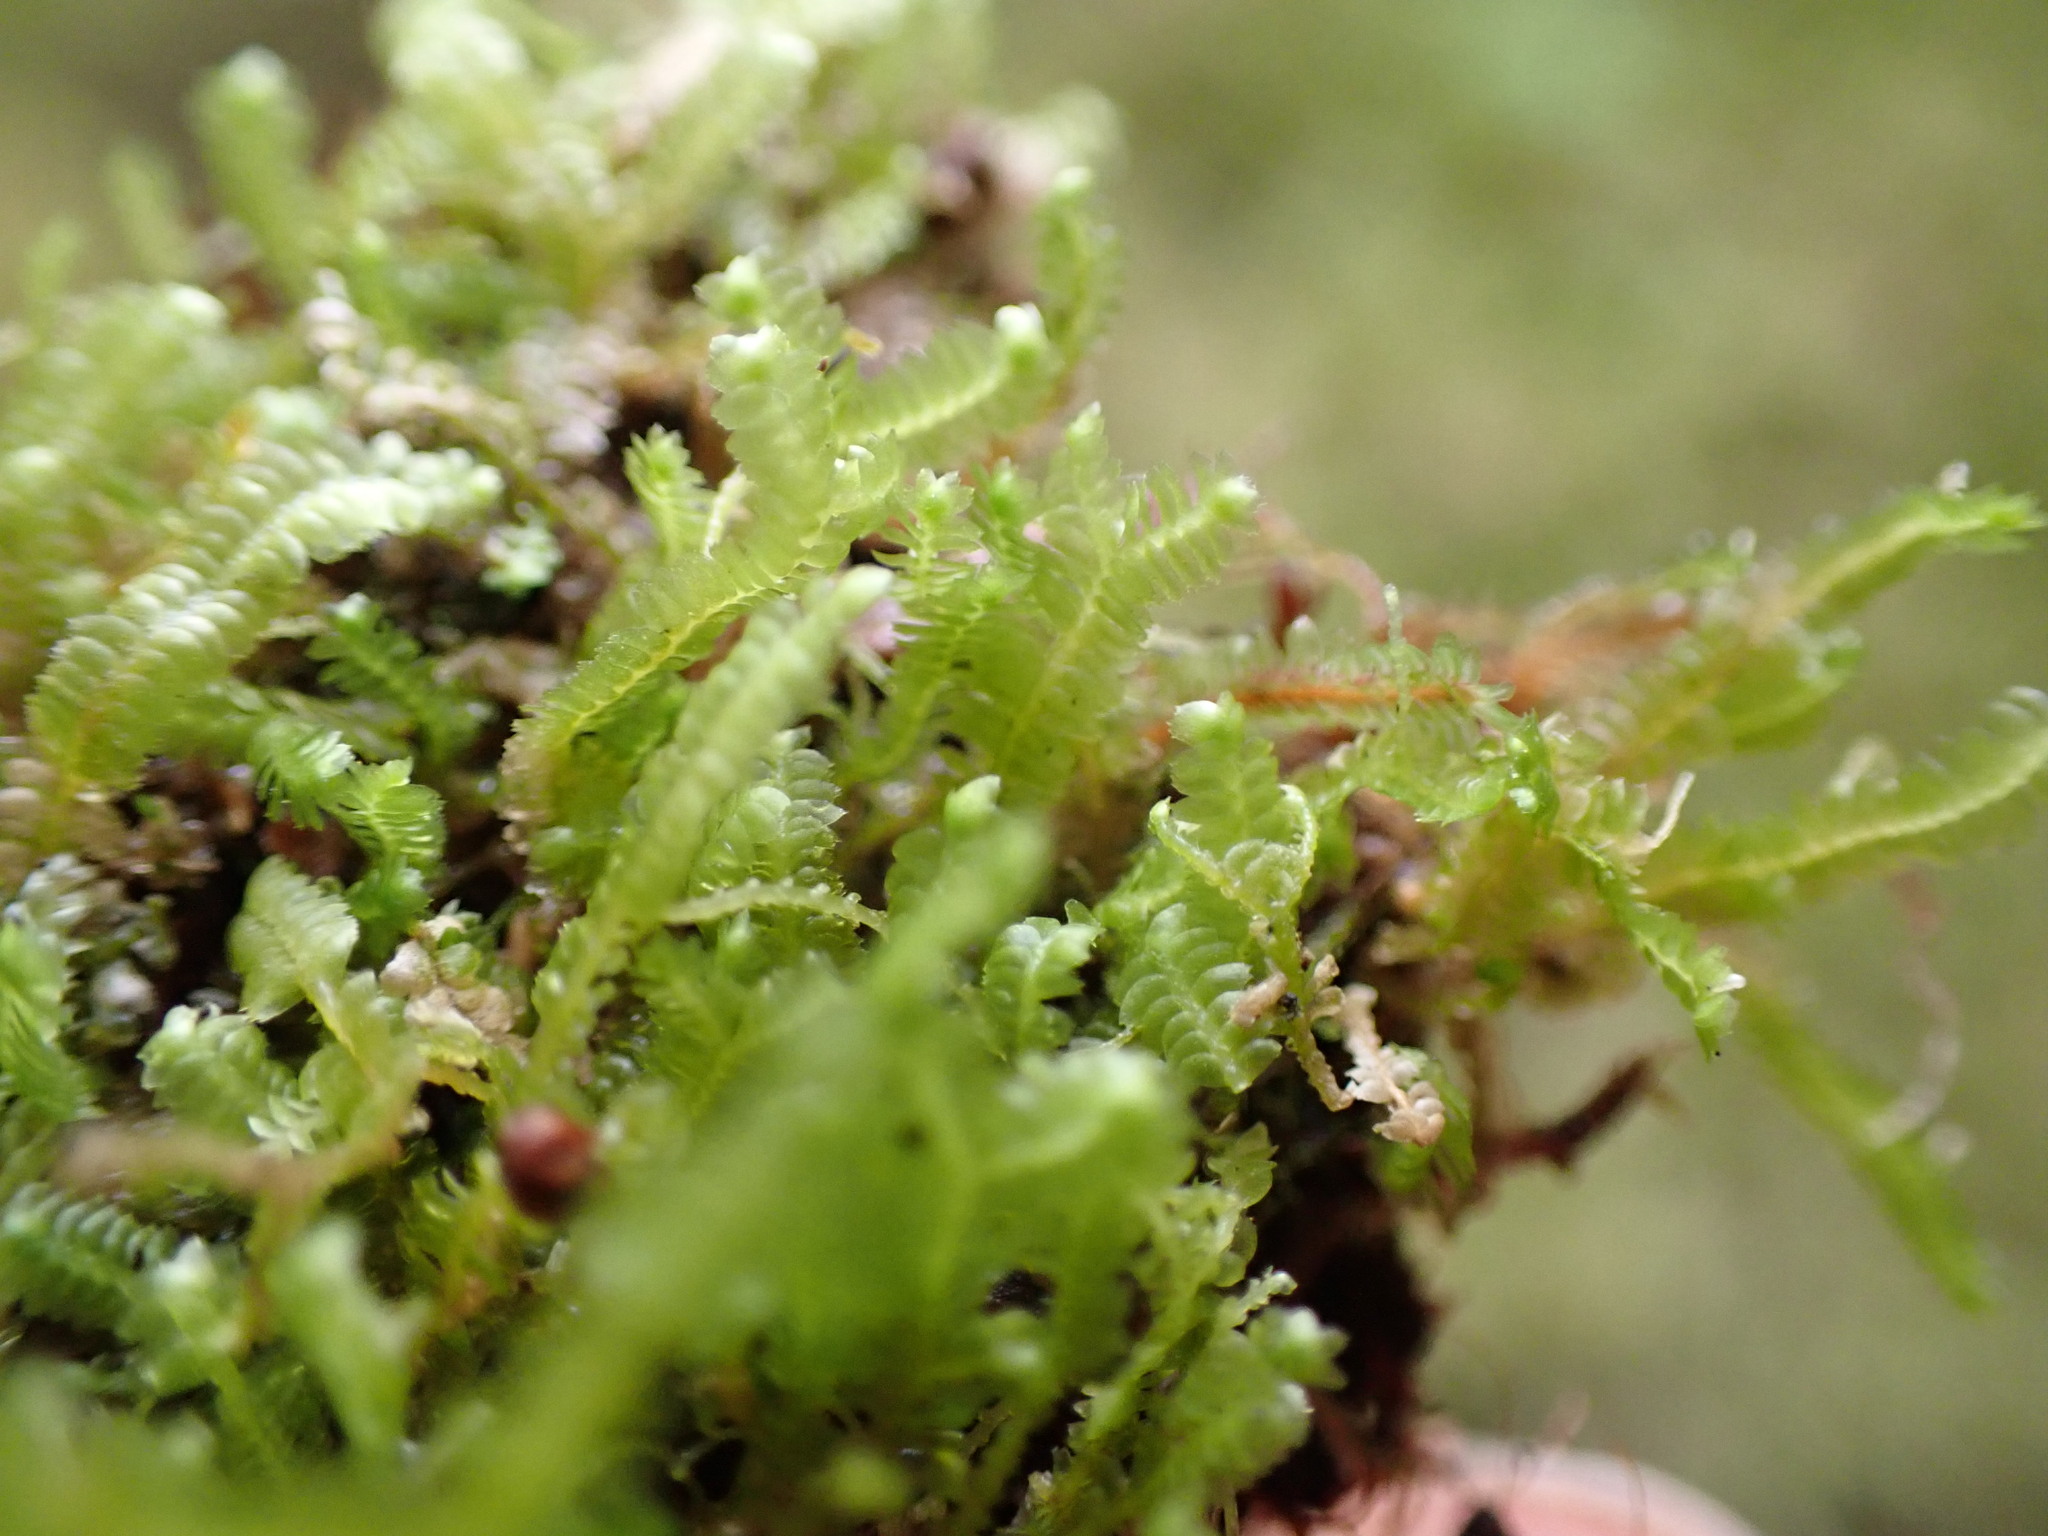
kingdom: Plantae
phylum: Marchantiophyta
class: Jungermanniopsida
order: Jungermanniales
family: Lepidoziaceae
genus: Bazzania
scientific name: Bazzania denudata
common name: Naked whipwort
